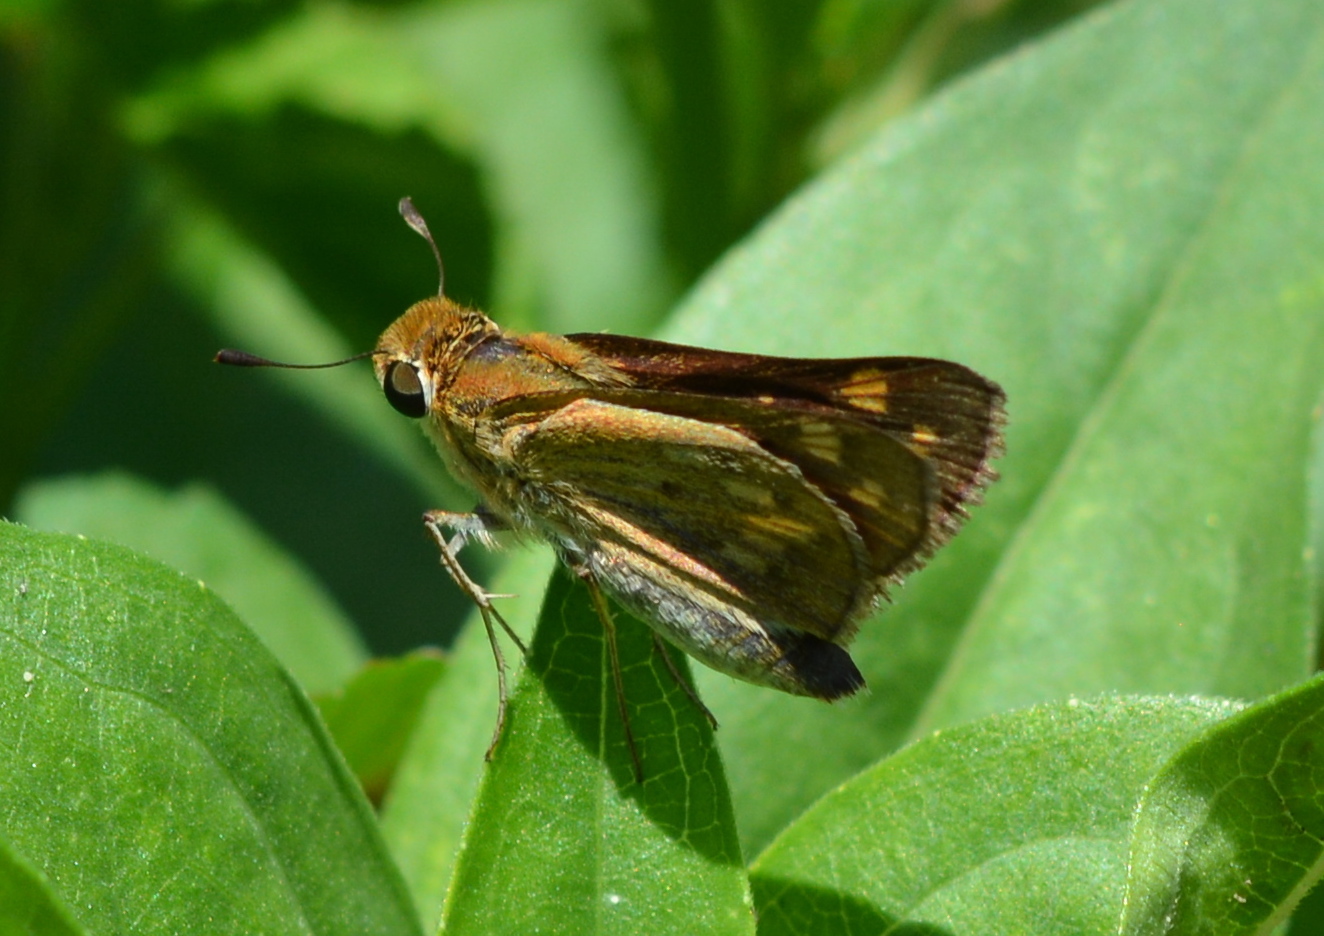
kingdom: Animalia
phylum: Arthropoda
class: Insecta
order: Lepidoptera
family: Hesperiidae
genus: Hylephila
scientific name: Hylephila phyleus
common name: Fiery skipper
